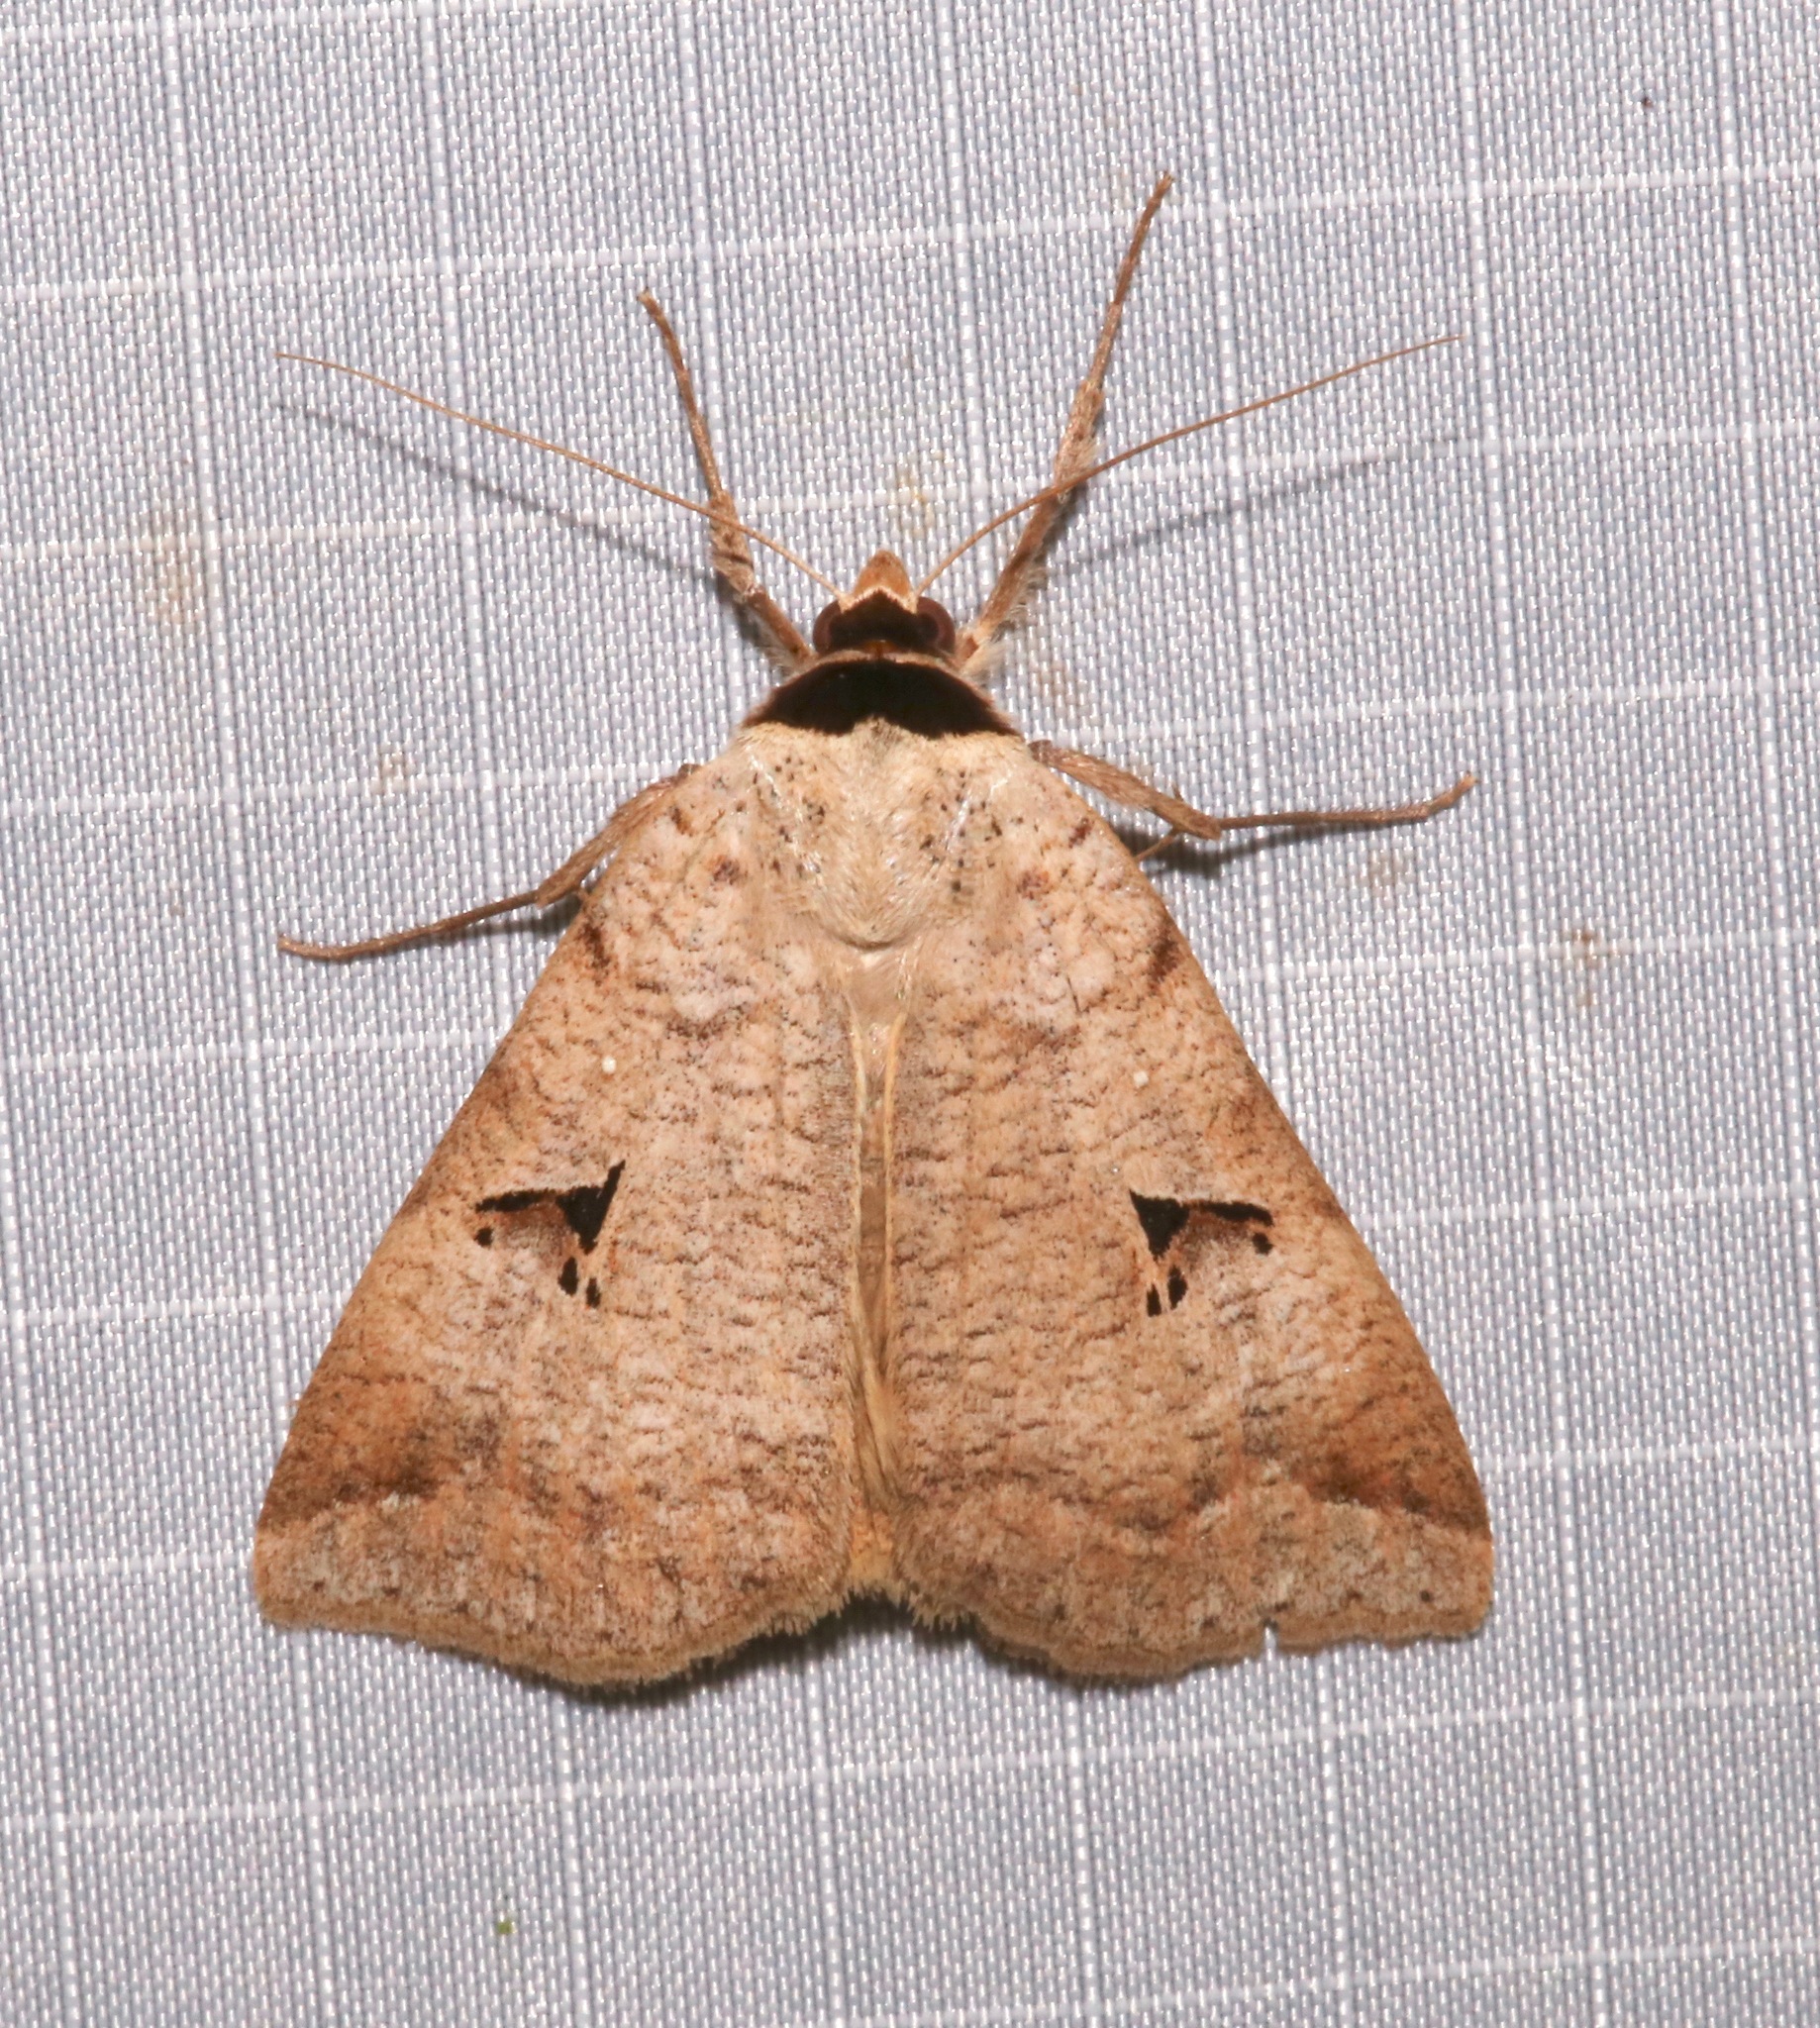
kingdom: Animalia
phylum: Arthropoda
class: Insecta
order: Lepidoptera
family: Erebidae
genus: Lygephila
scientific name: Lygephila victoria
